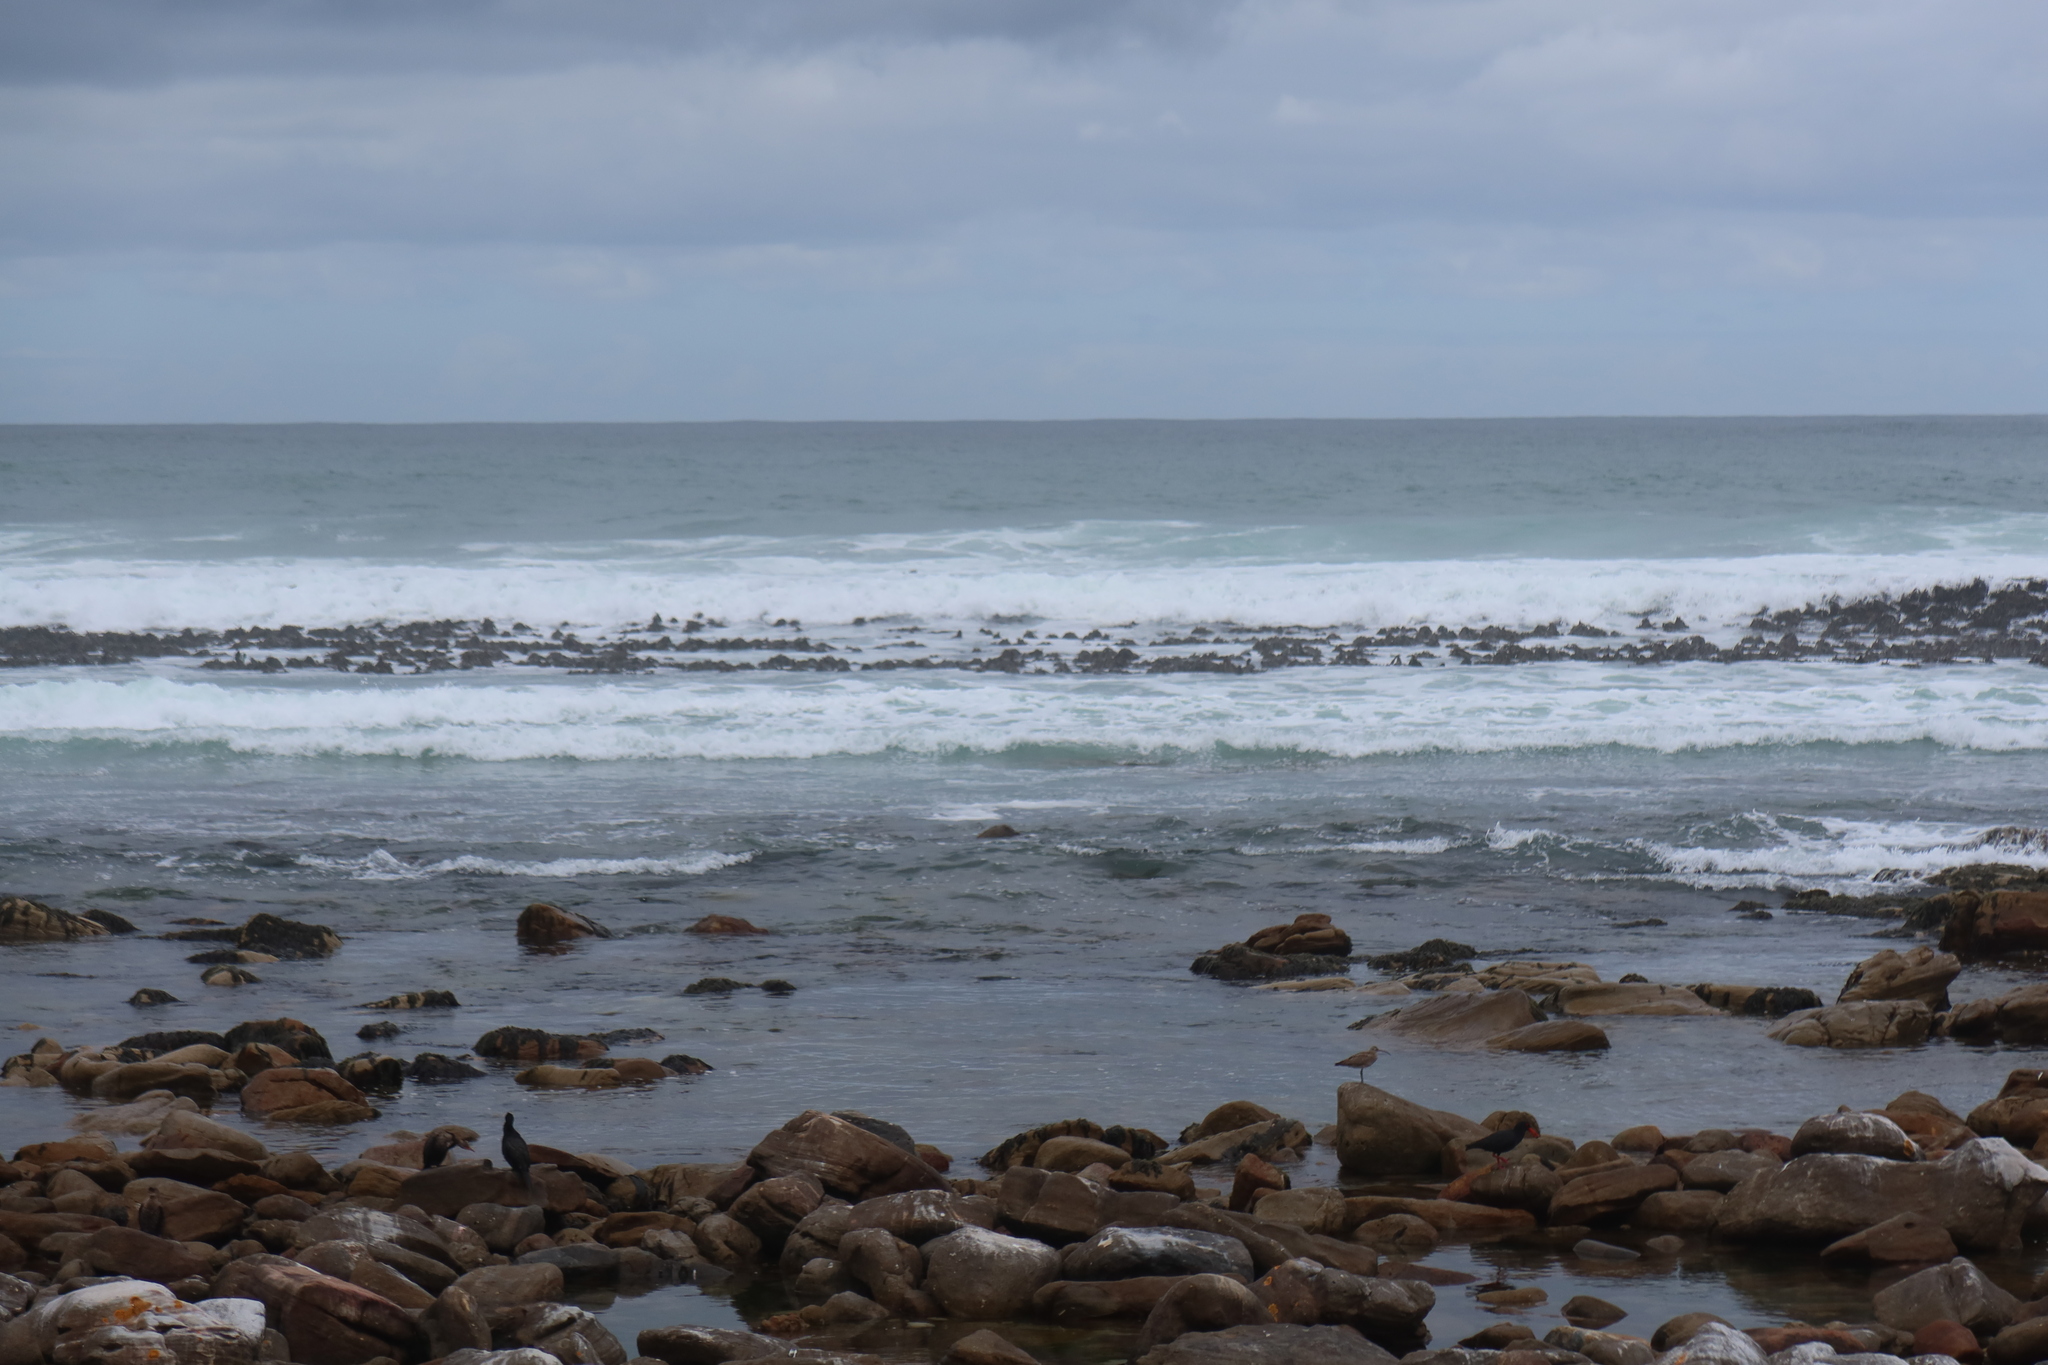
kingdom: Animalia
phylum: Chordata
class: Aves
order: Charadriiformes
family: Scolopacidae
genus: Numenius
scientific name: Numenius phaeopus
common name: Whimbrel
